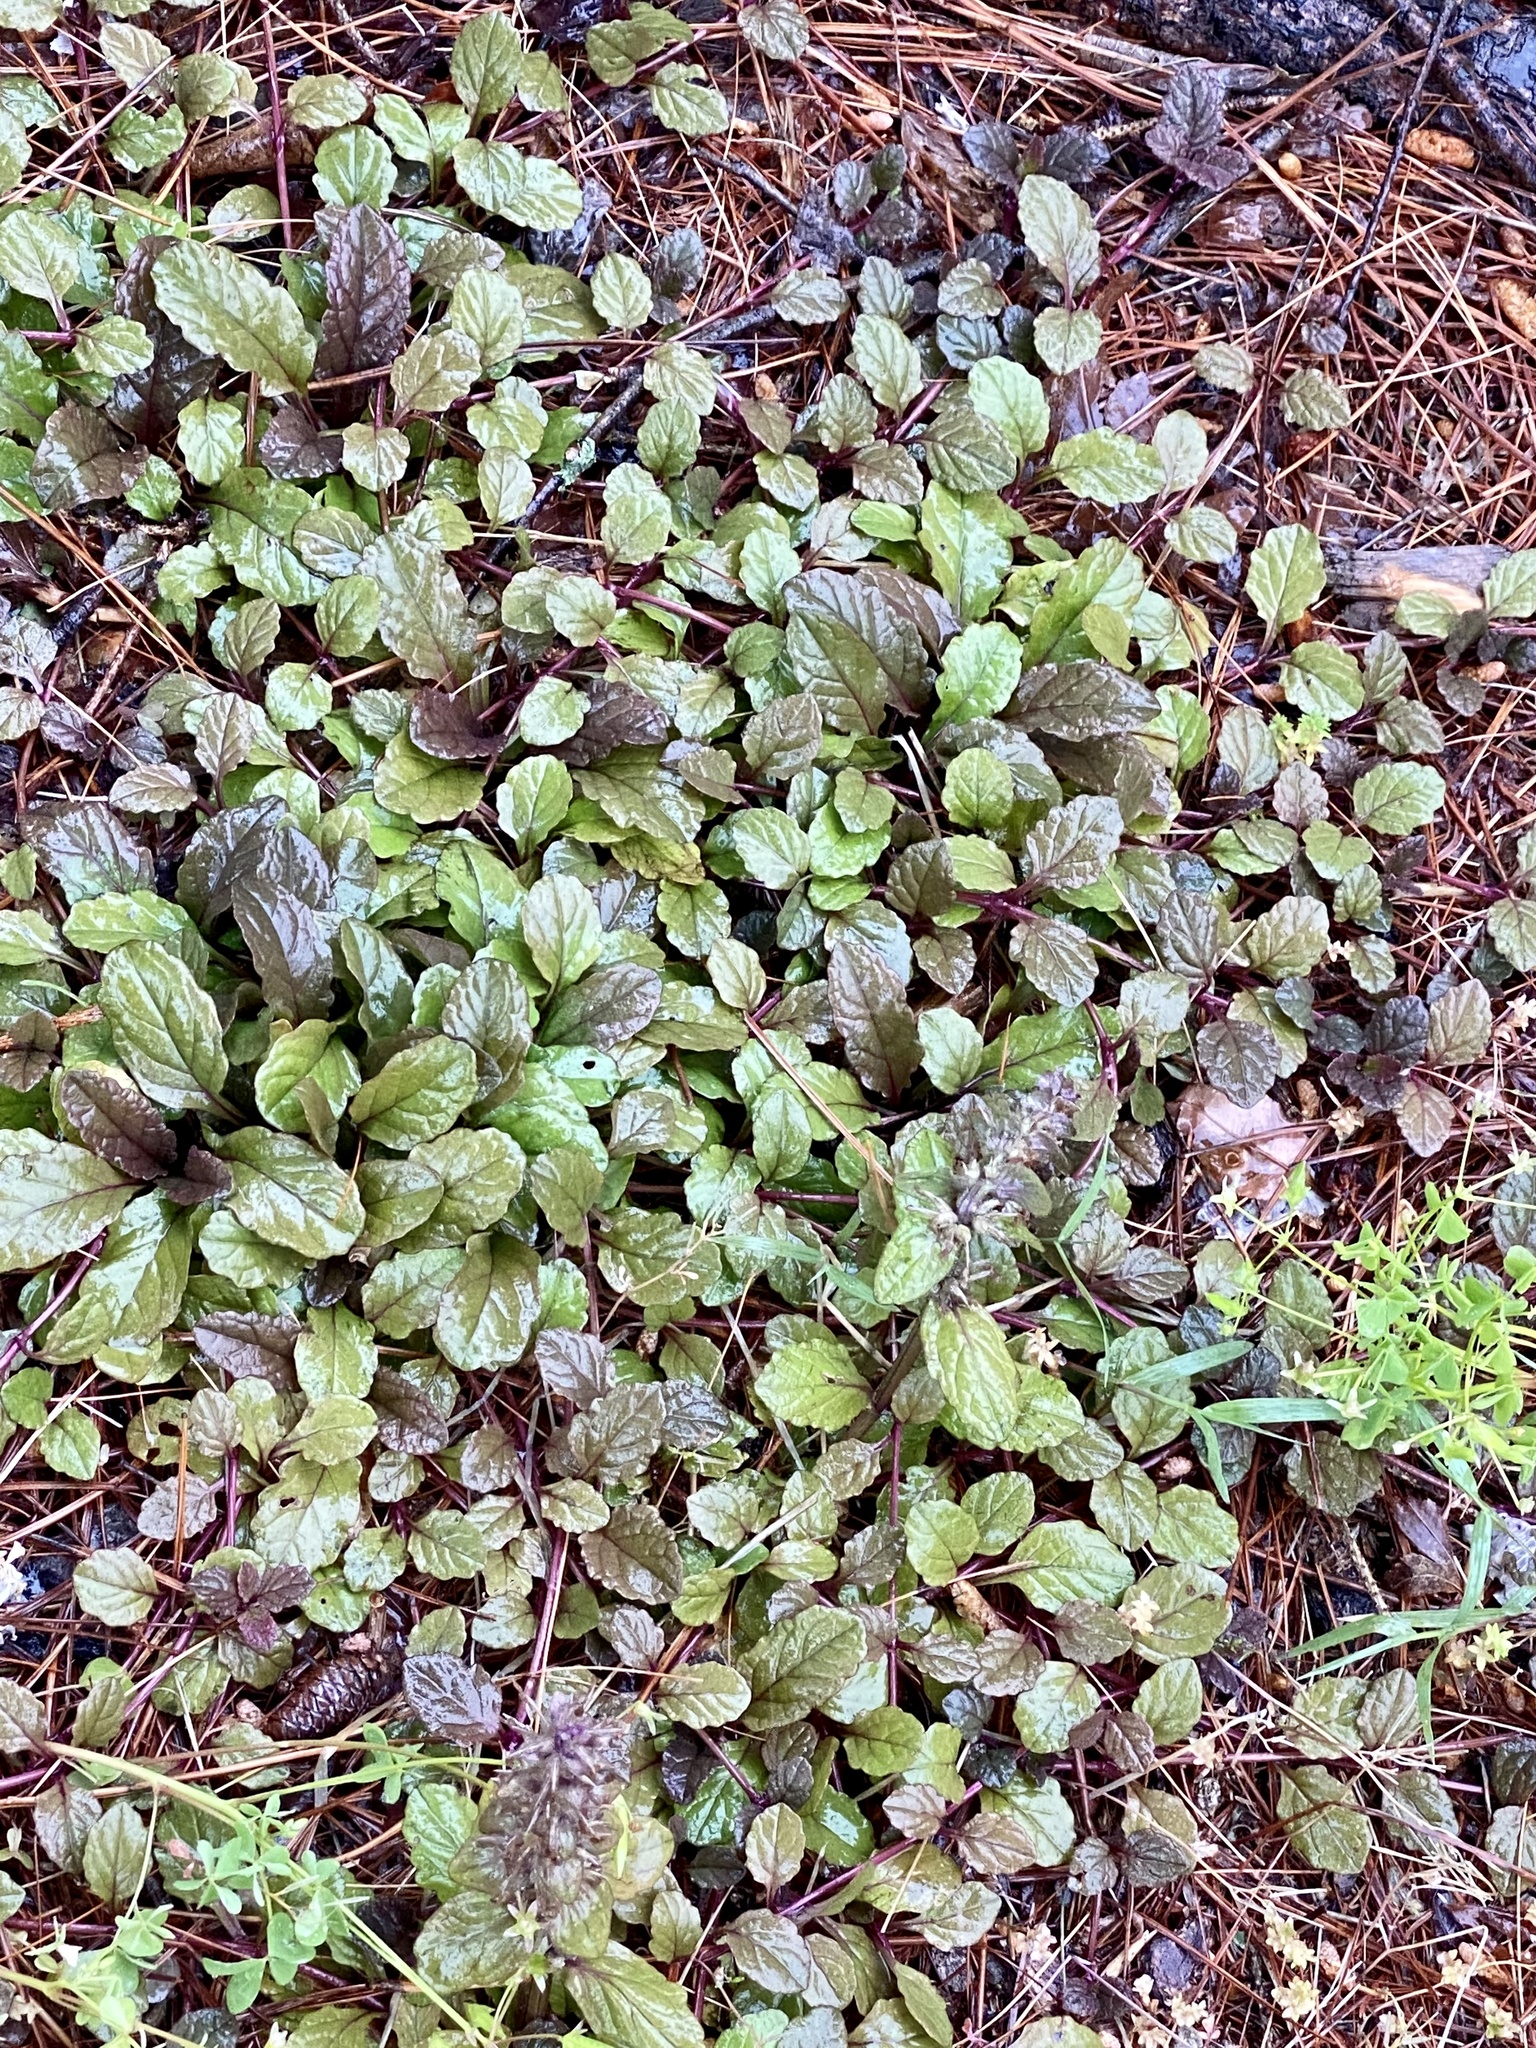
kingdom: Plantae
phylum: Tracheophyta
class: Magnoliopsida
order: Lamiales
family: Lamiaceae
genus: Ajuga
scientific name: Ajuga reptans
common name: Bugle
